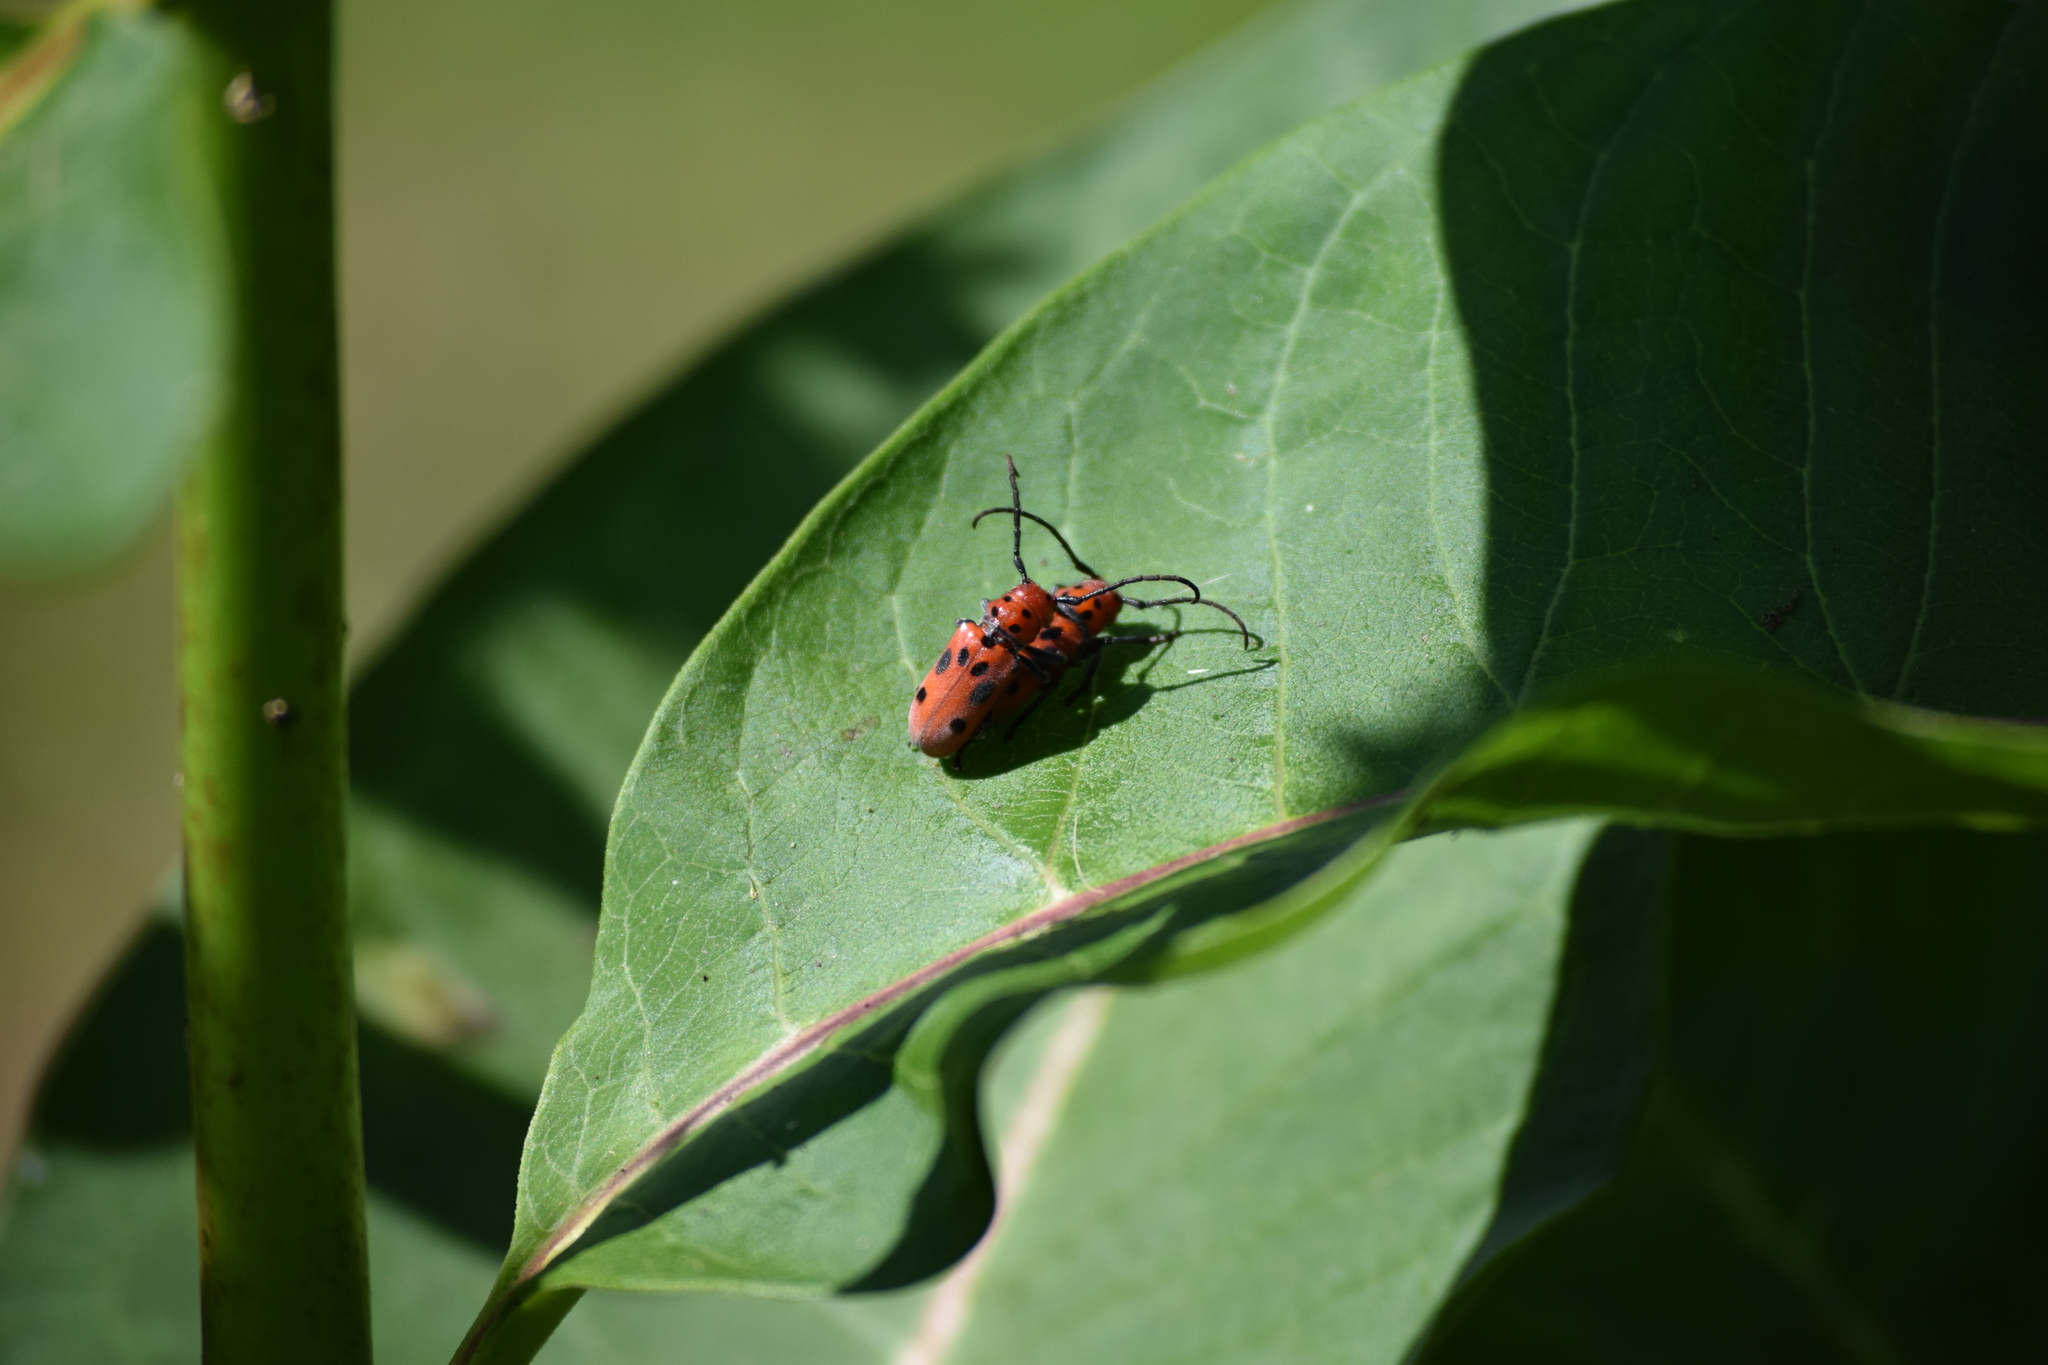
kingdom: Animalia
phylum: Arthropoda
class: Insecta
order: Coleoptera
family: Cerambycidae
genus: Tetraopes
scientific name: Tetraopes tetrophthalmus
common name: Red milkweed beetle
